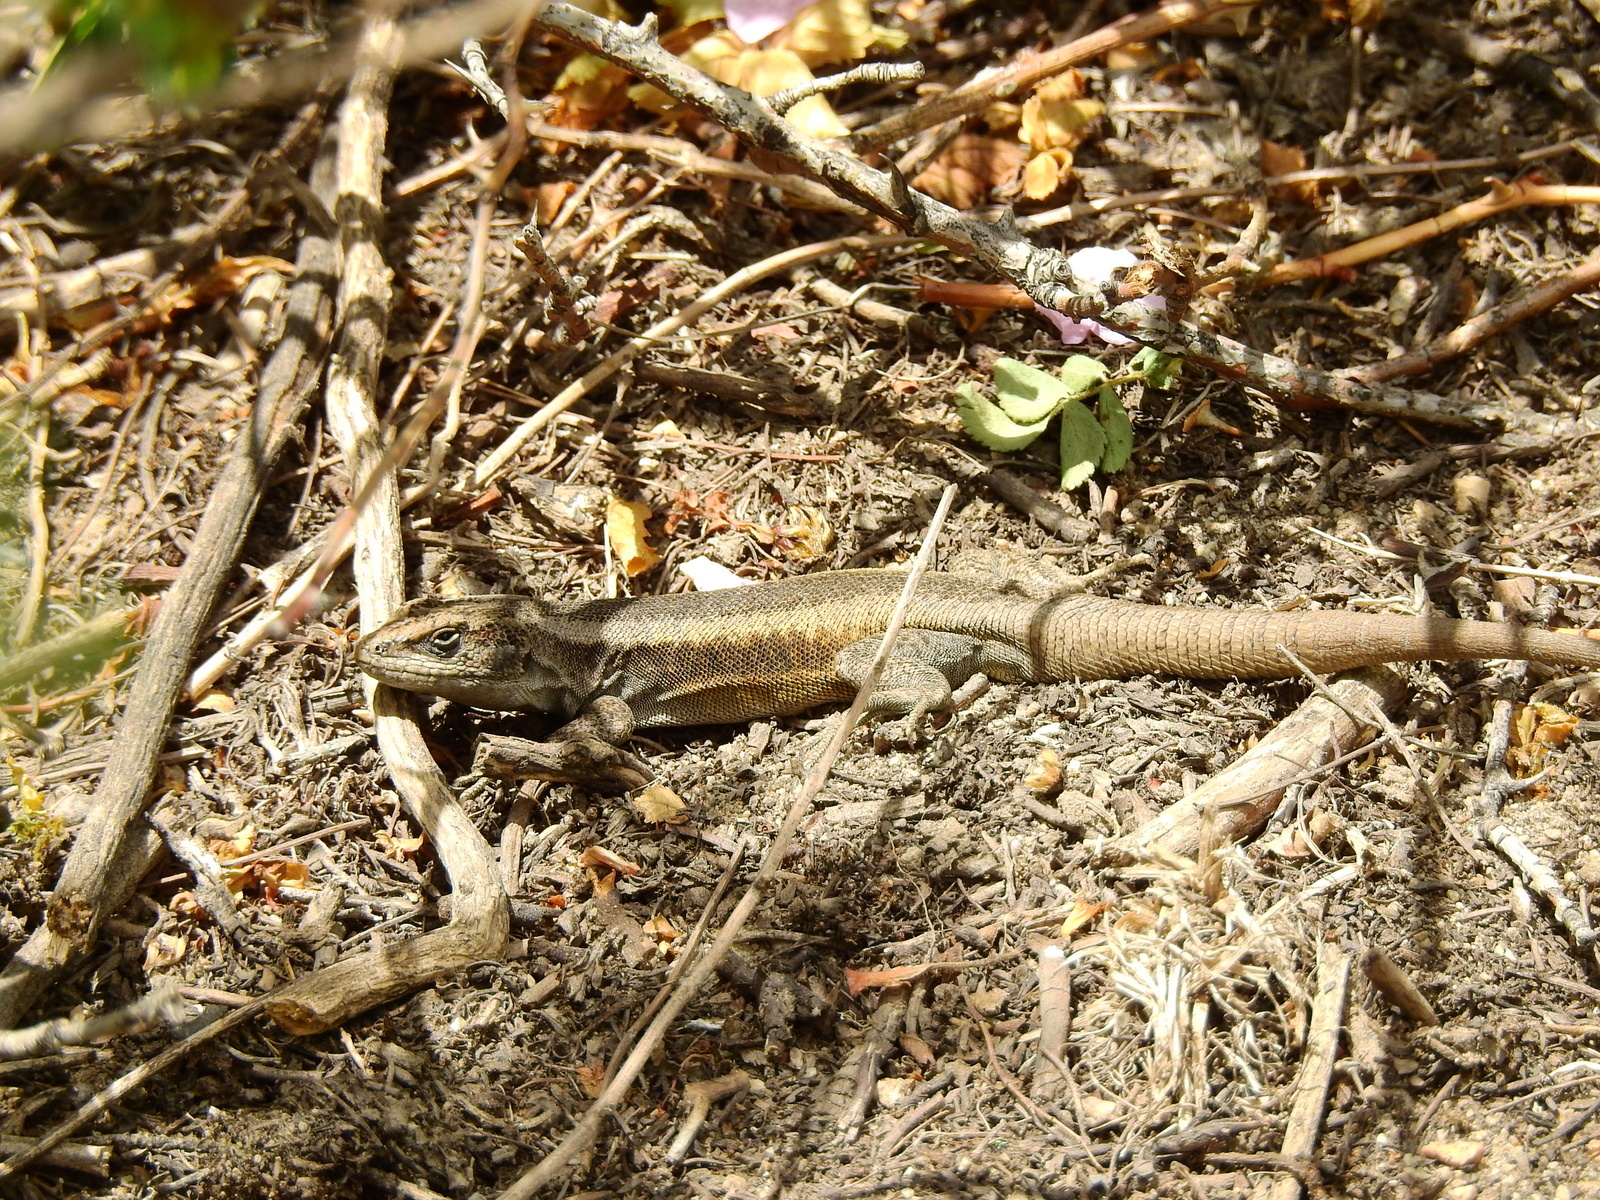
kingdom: Animalia
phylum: Chordata
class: Squamata
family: Liolaemidae
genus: Liolaemus
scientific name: Liolaemus parvus
